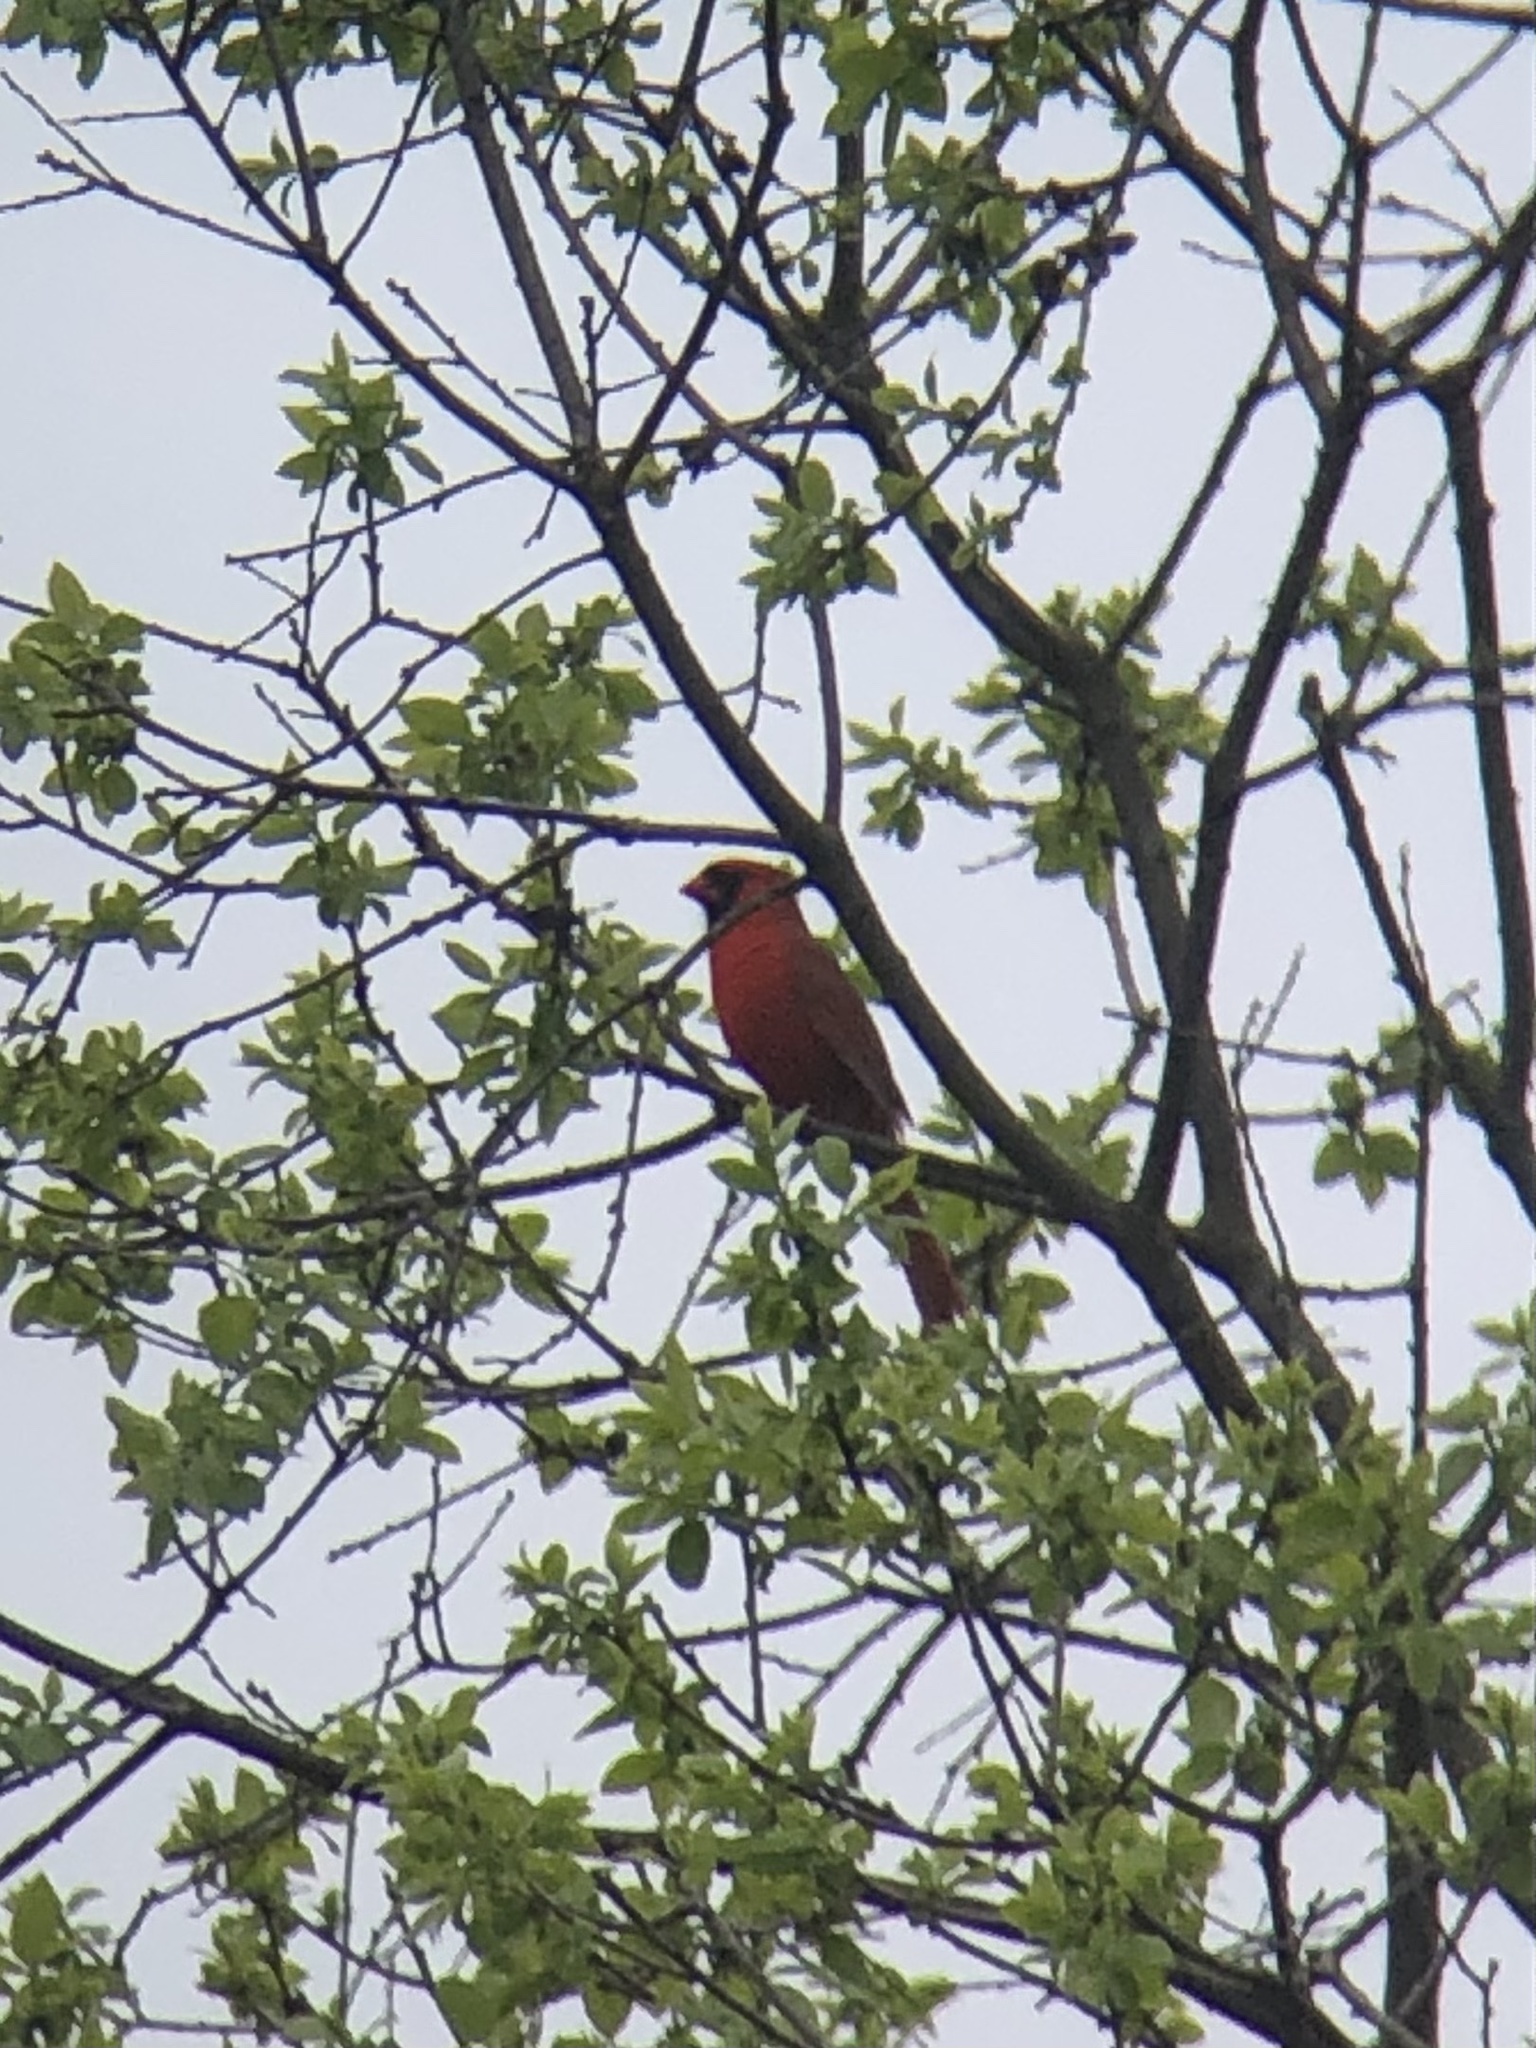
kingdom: Animalia
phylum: Chordata
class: Aves
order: Passeriformes
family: Cardinalidae
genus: Cardinalis
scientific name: Cardinalis cardinalis
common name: Northern cardinal
